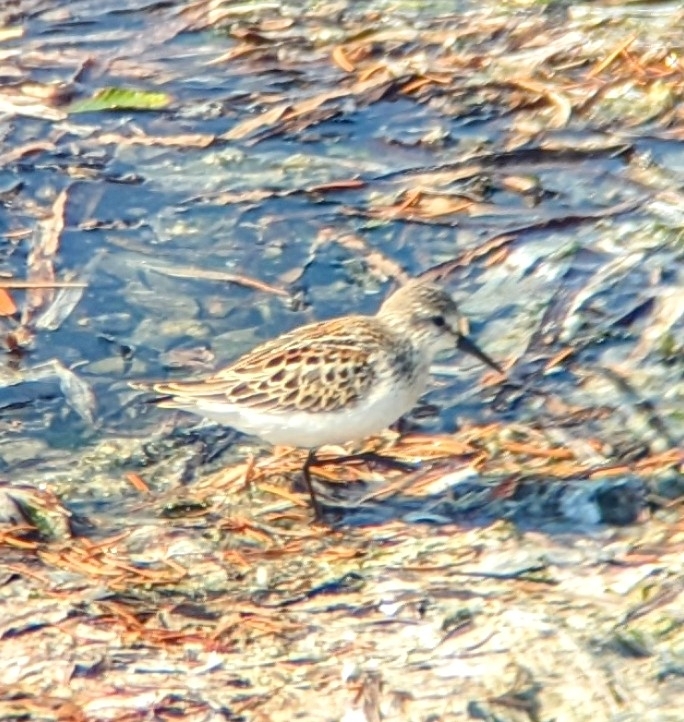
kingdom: Animalia
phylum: Chordata
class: Aves
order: Charadriiformes
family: Scolopacidae
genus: Calidris
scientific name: Calidris mauri
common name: Western sandpiper
